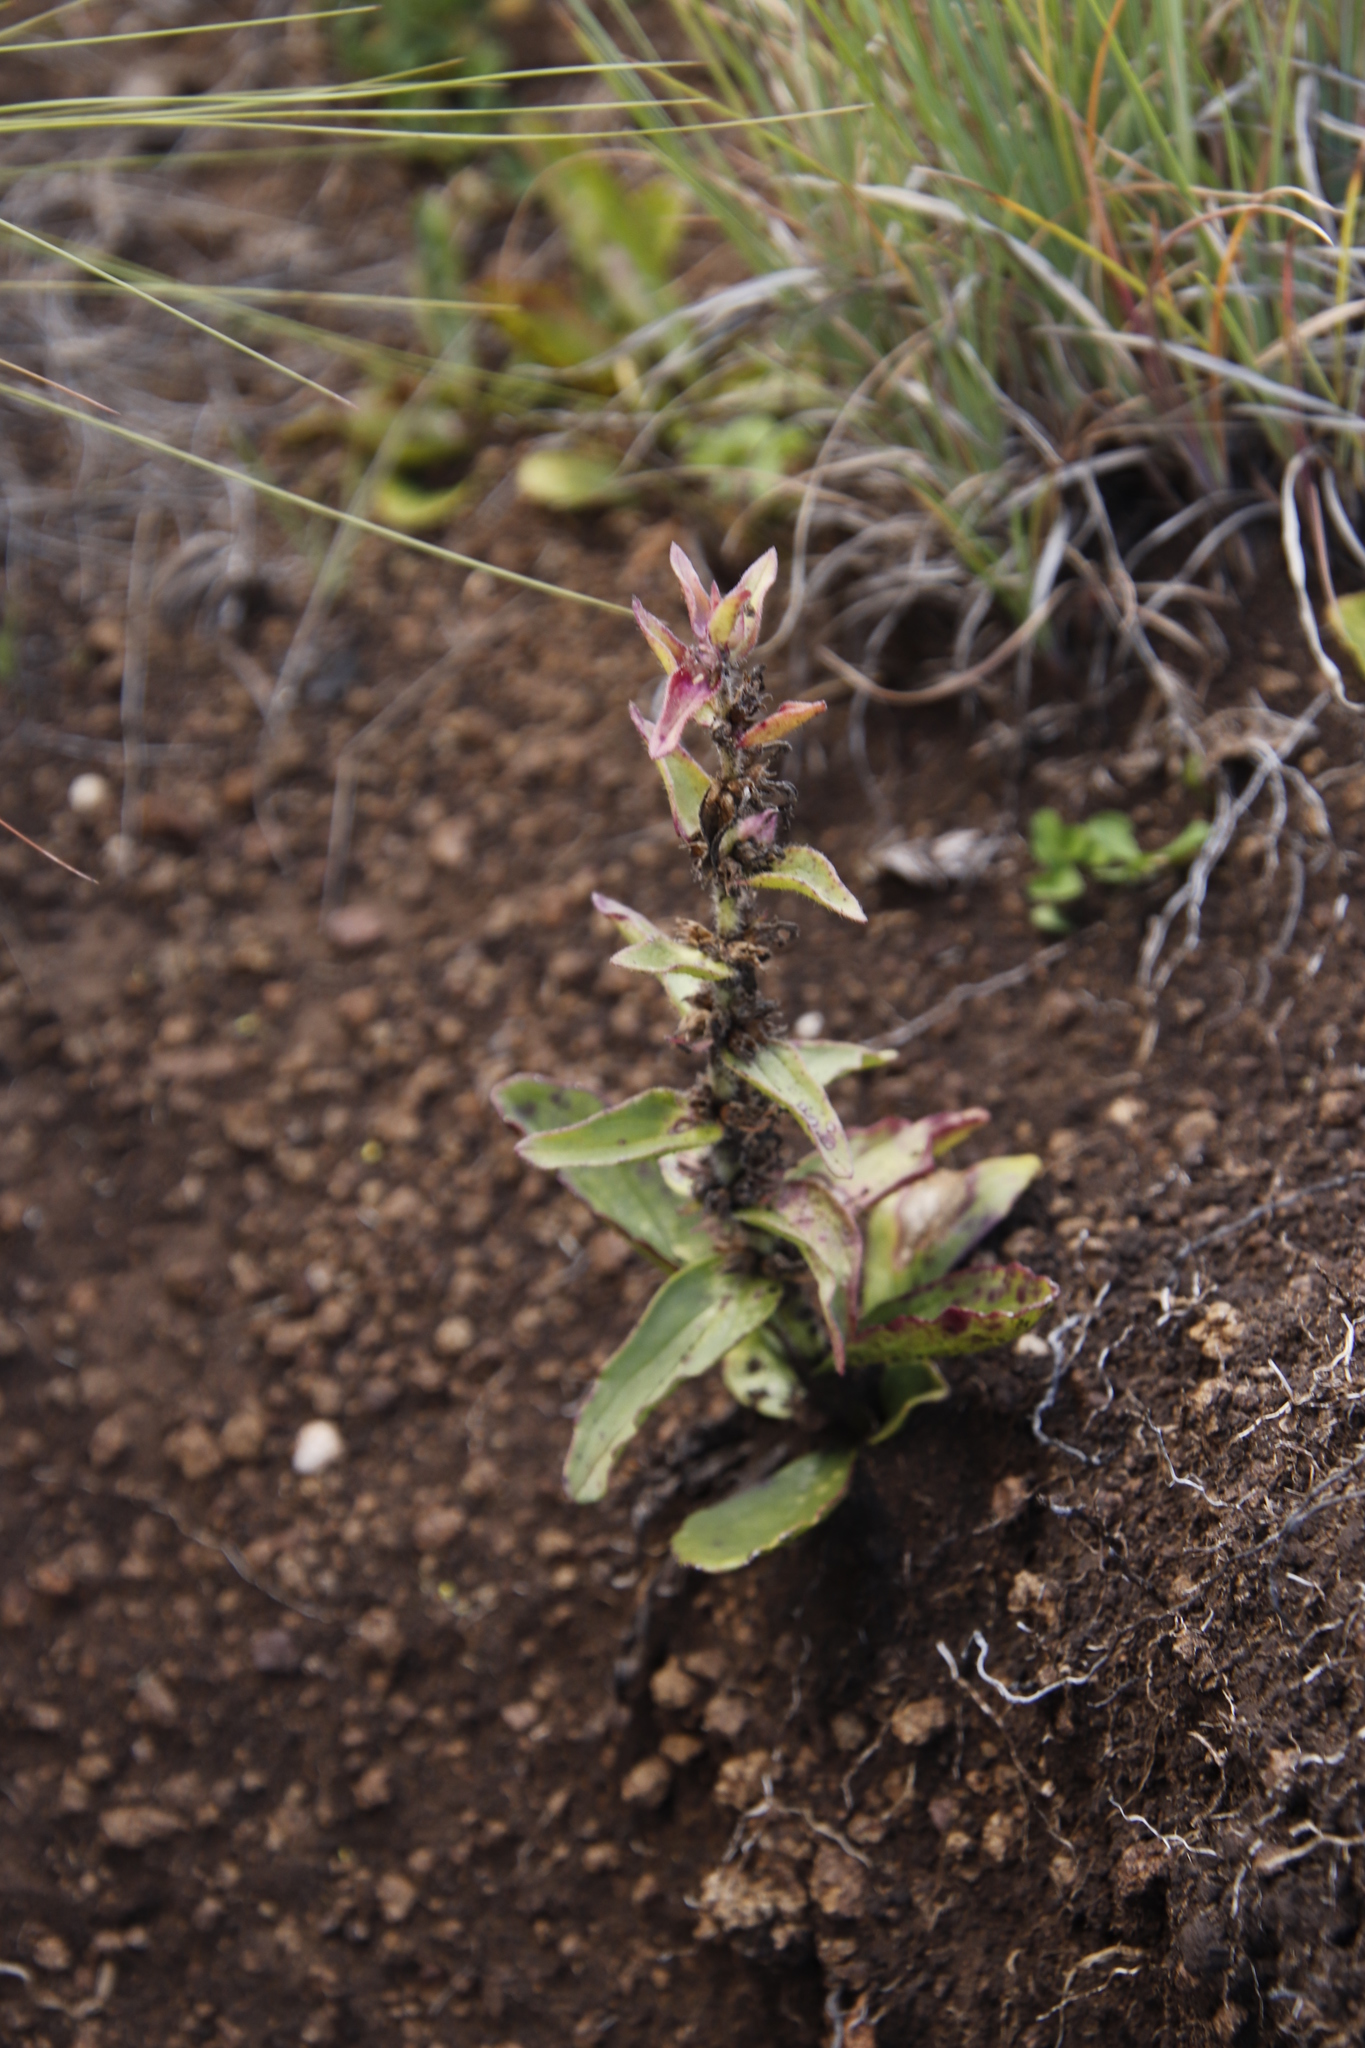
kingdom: Plantae
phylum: Tracheophyta
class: Magnoliopsida
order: Lamiales
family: Lamiaceae
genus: Ajuga
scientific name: Ajuga ophrydis
